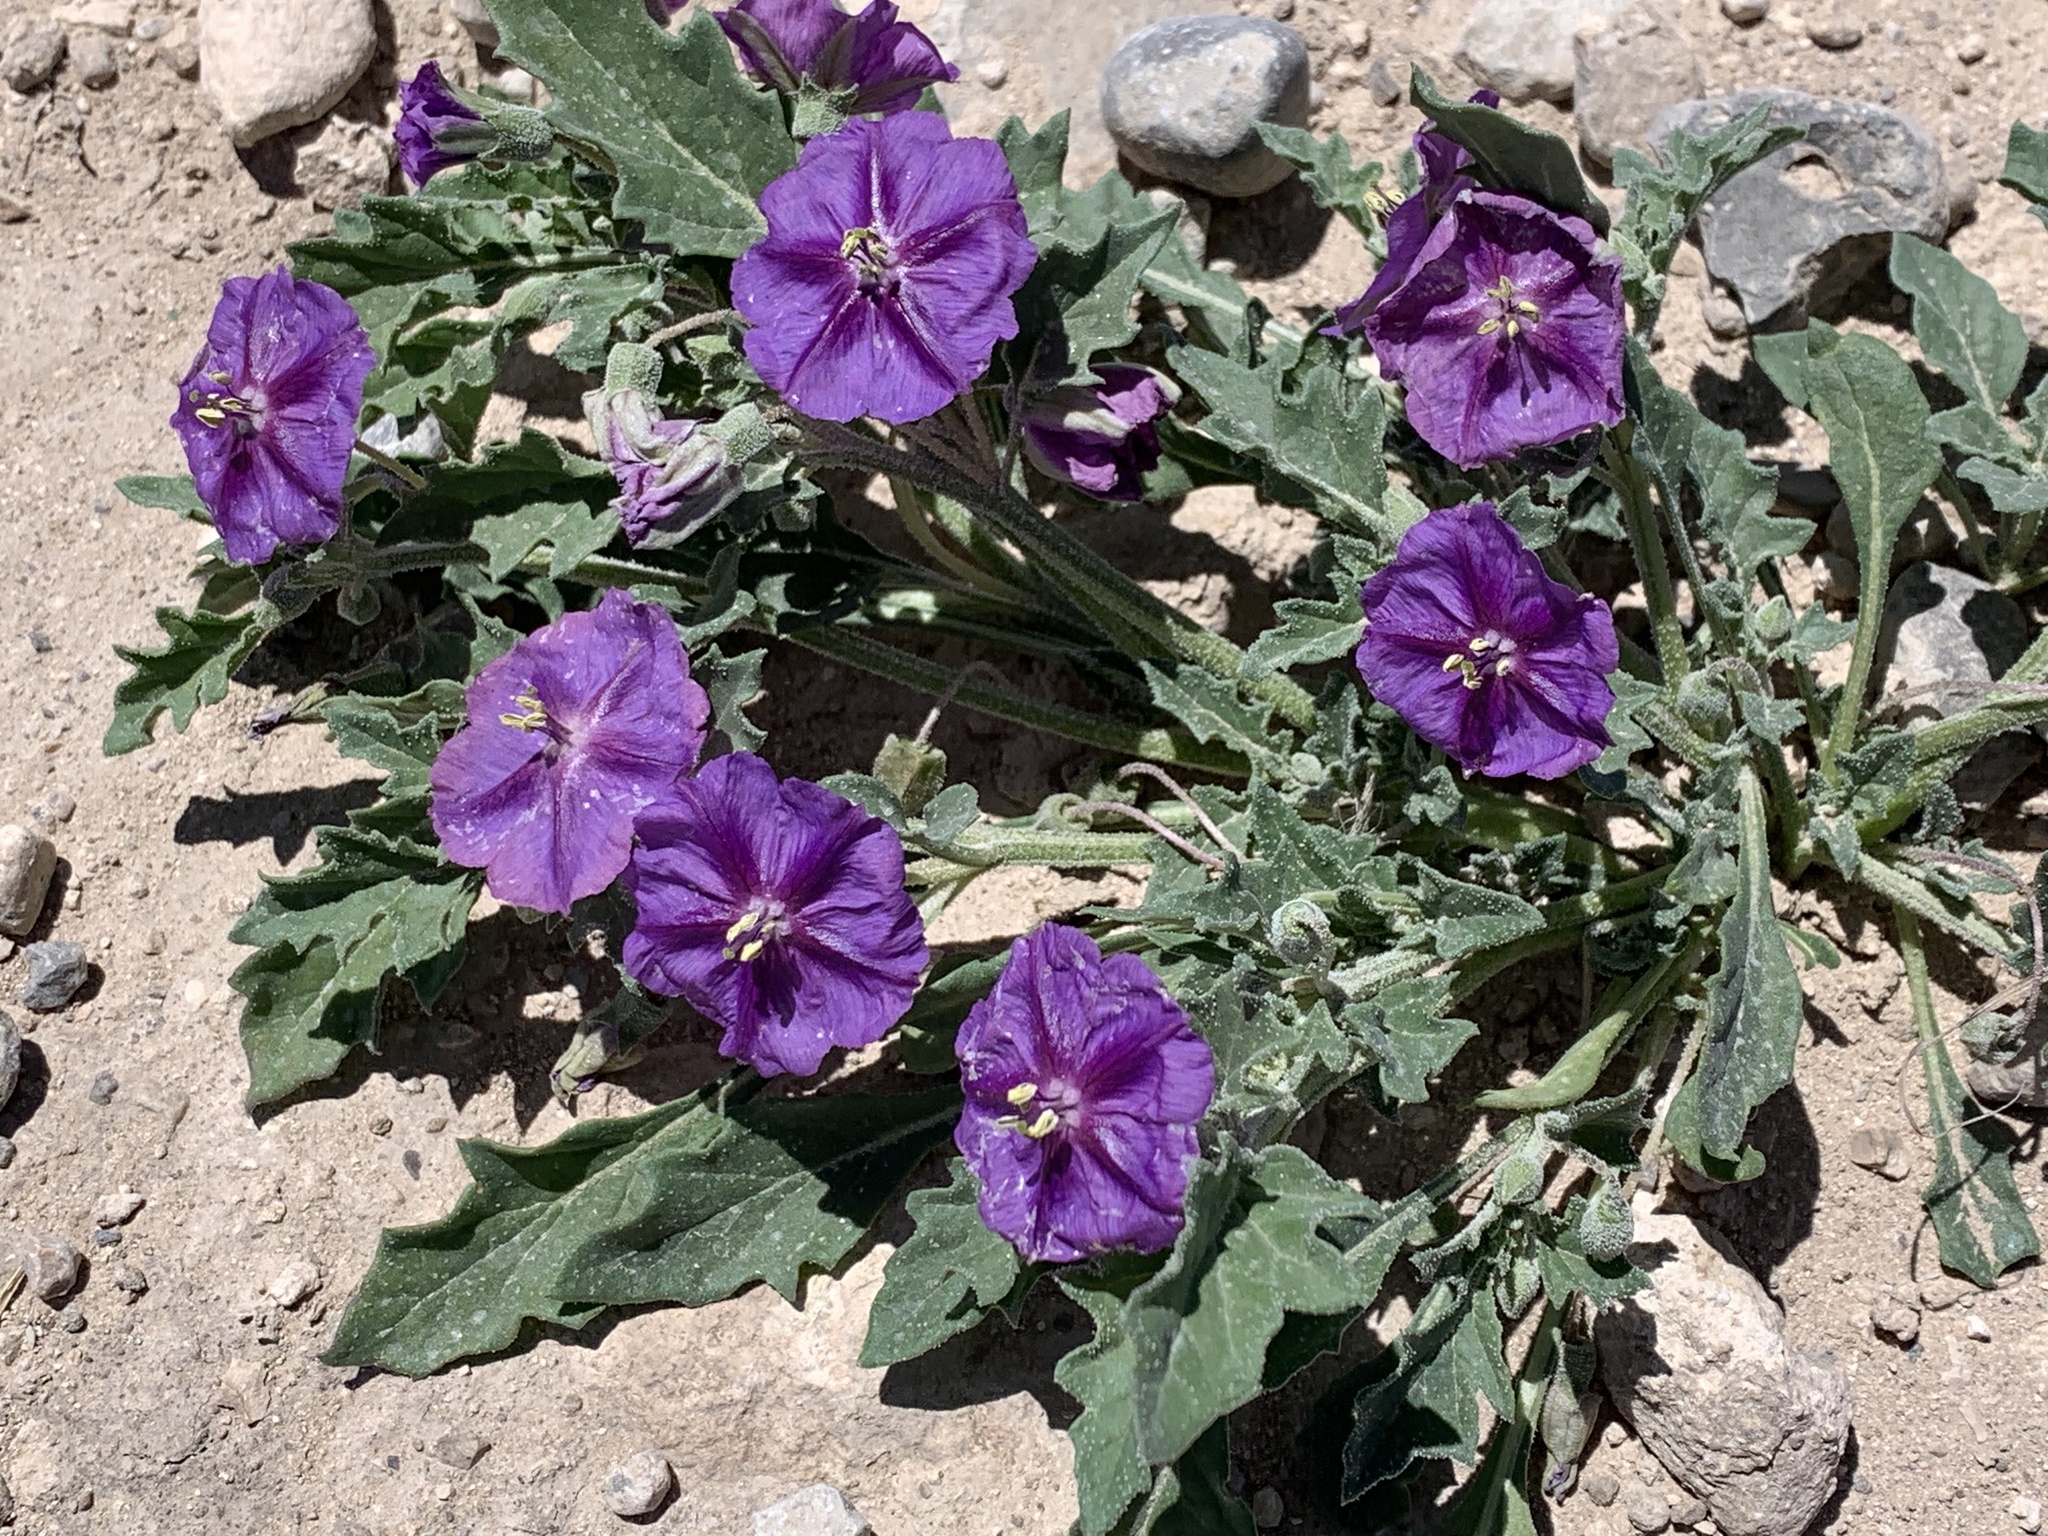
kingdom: Plantae
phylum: Tracheophyta
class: Magnoliopsida
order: Solanales
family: Solanaceae
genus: Quincula
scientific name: Quincula lobata
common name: Purple-ground-cherry
